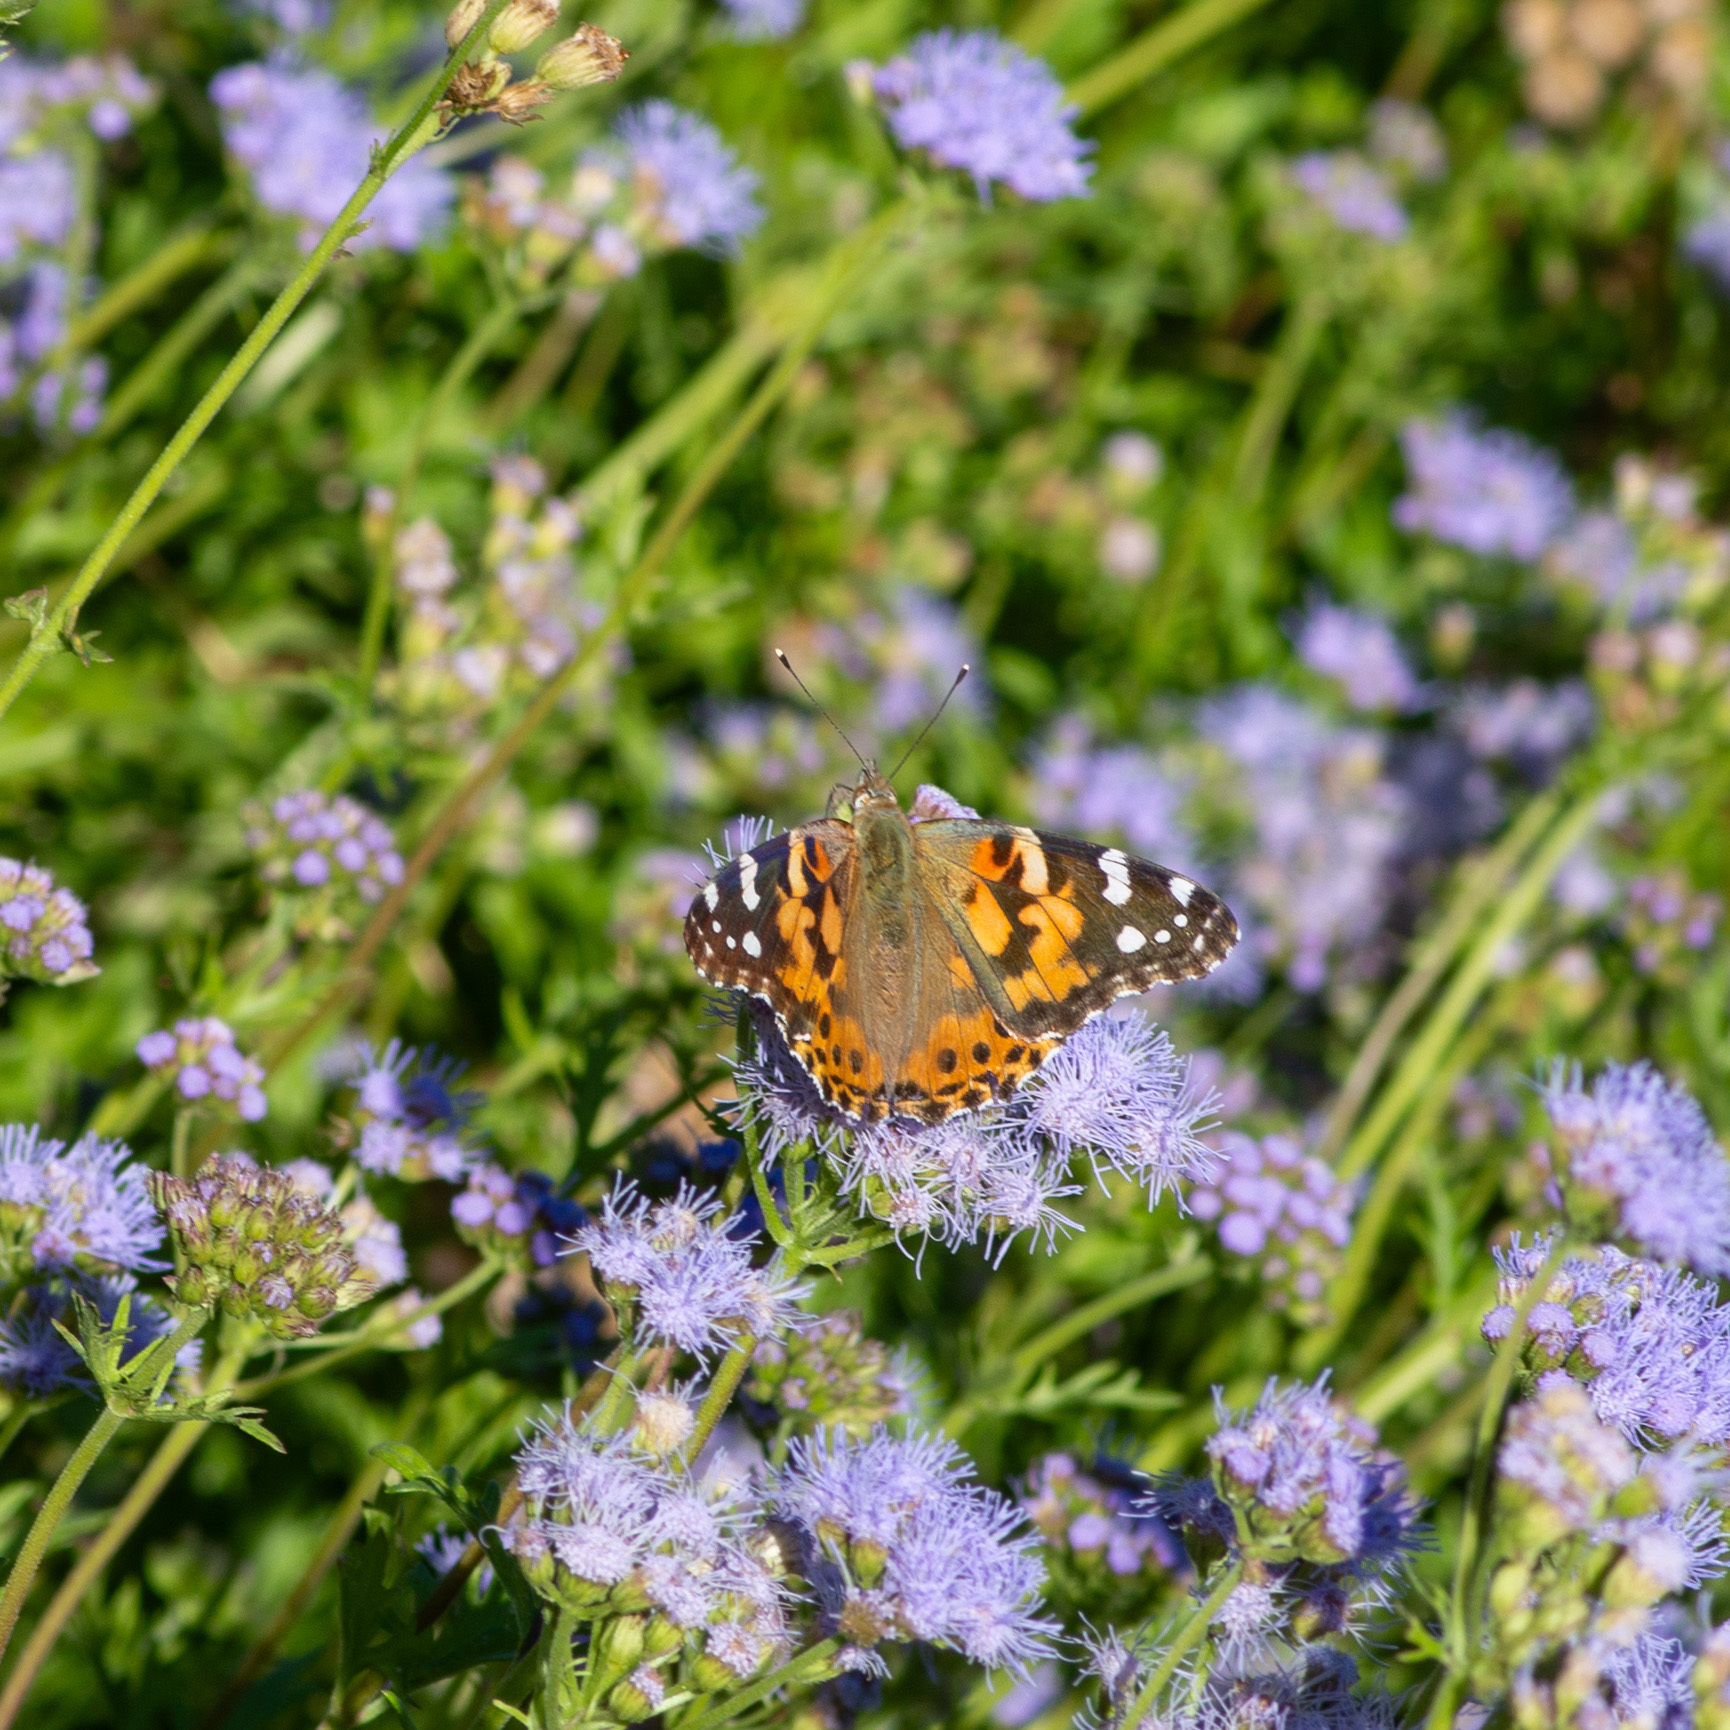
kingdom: Animalia
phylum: Arthropoda
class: Insecta
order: Lepidoptera
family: Nymphalidae
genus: Vanessa
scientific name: Vanessa cardui
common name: Painted lady
